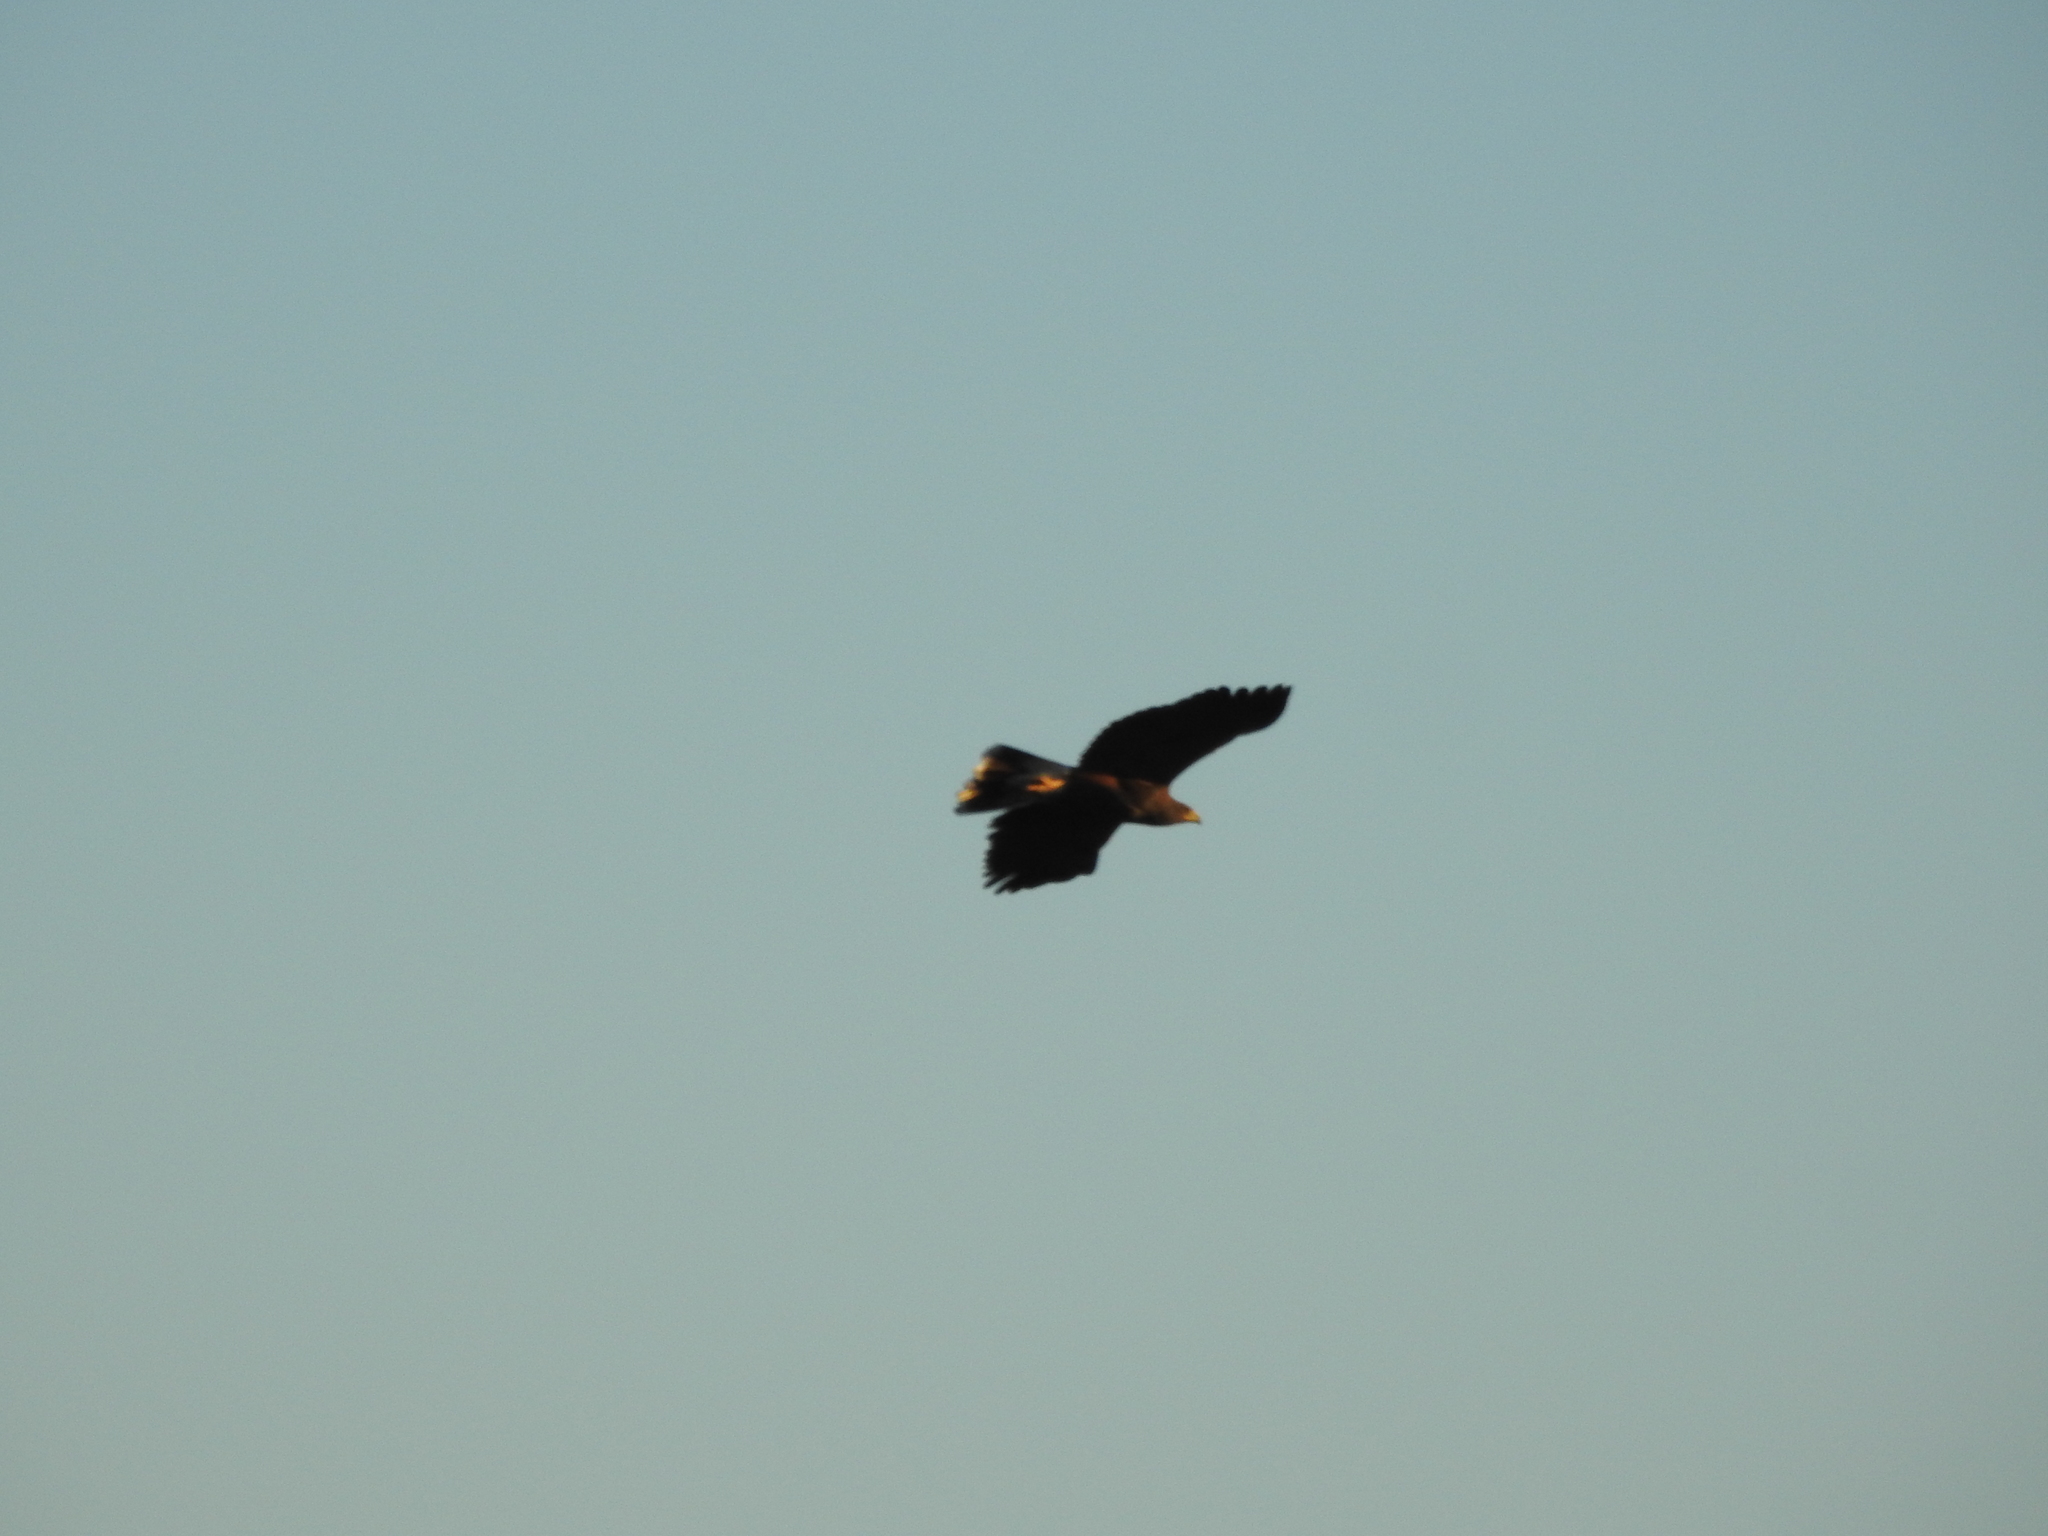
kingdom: Animalia
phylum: Chordata
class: Aves
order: Accipitriformes
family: Accipitridae
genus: Parabuteo
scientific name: Parabuteo unicinctus
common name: Harris's hawk
